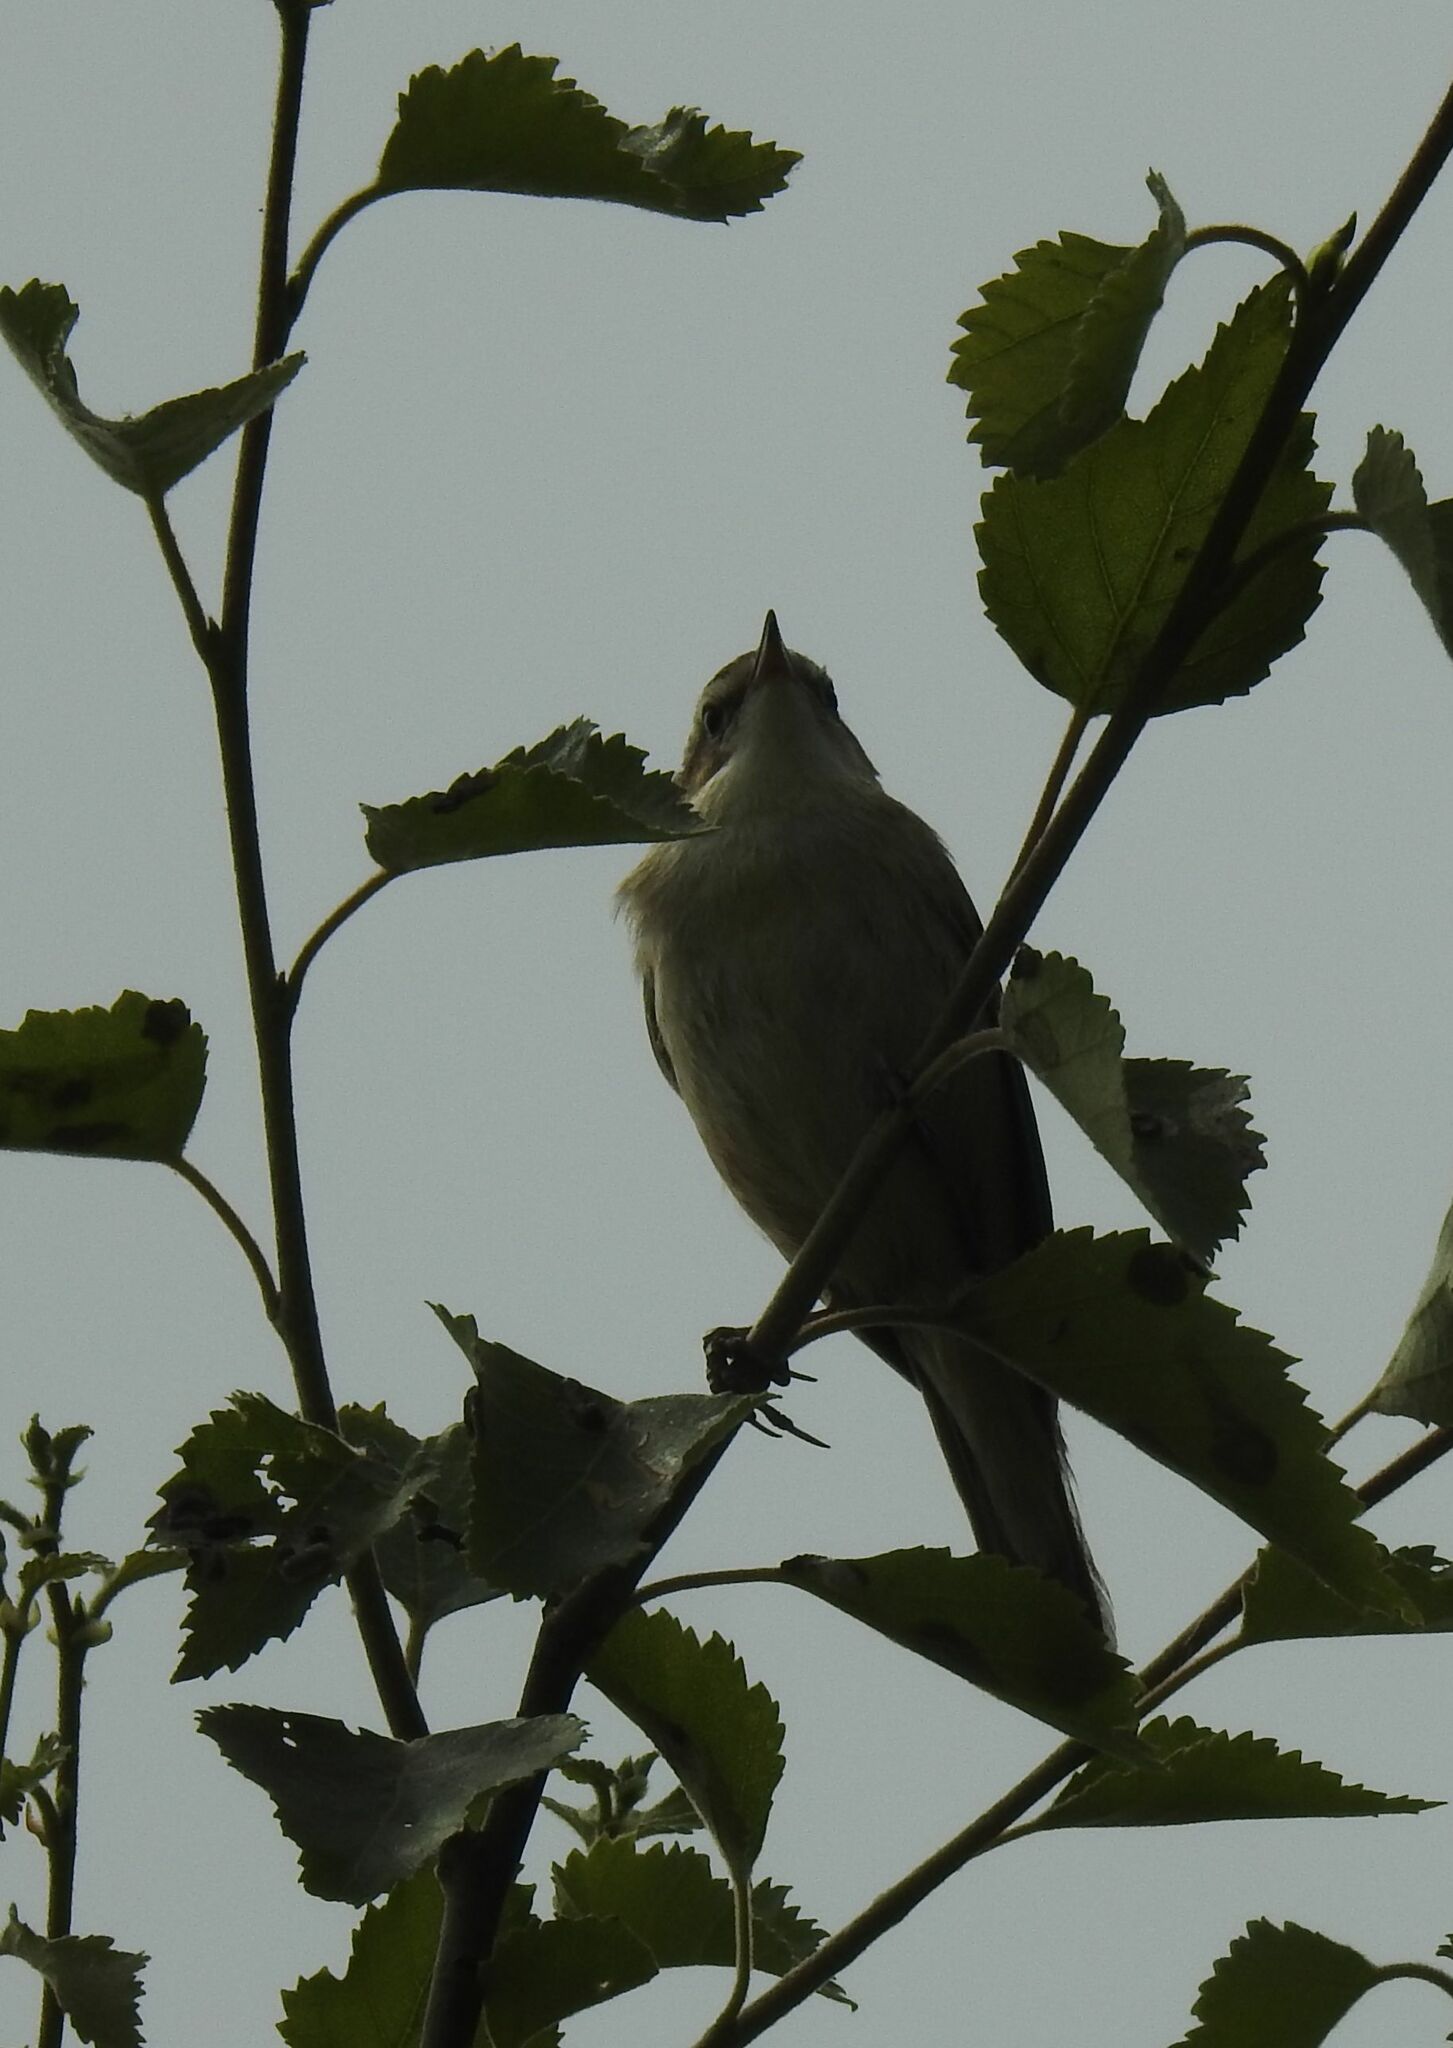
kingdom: Animalia
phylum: Chordata
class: Aves
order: Passeriformes
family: Acrocephalidae
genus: Acrocephalus
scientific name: Acrocephalus schoenobaenus
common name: Sedge warbler
